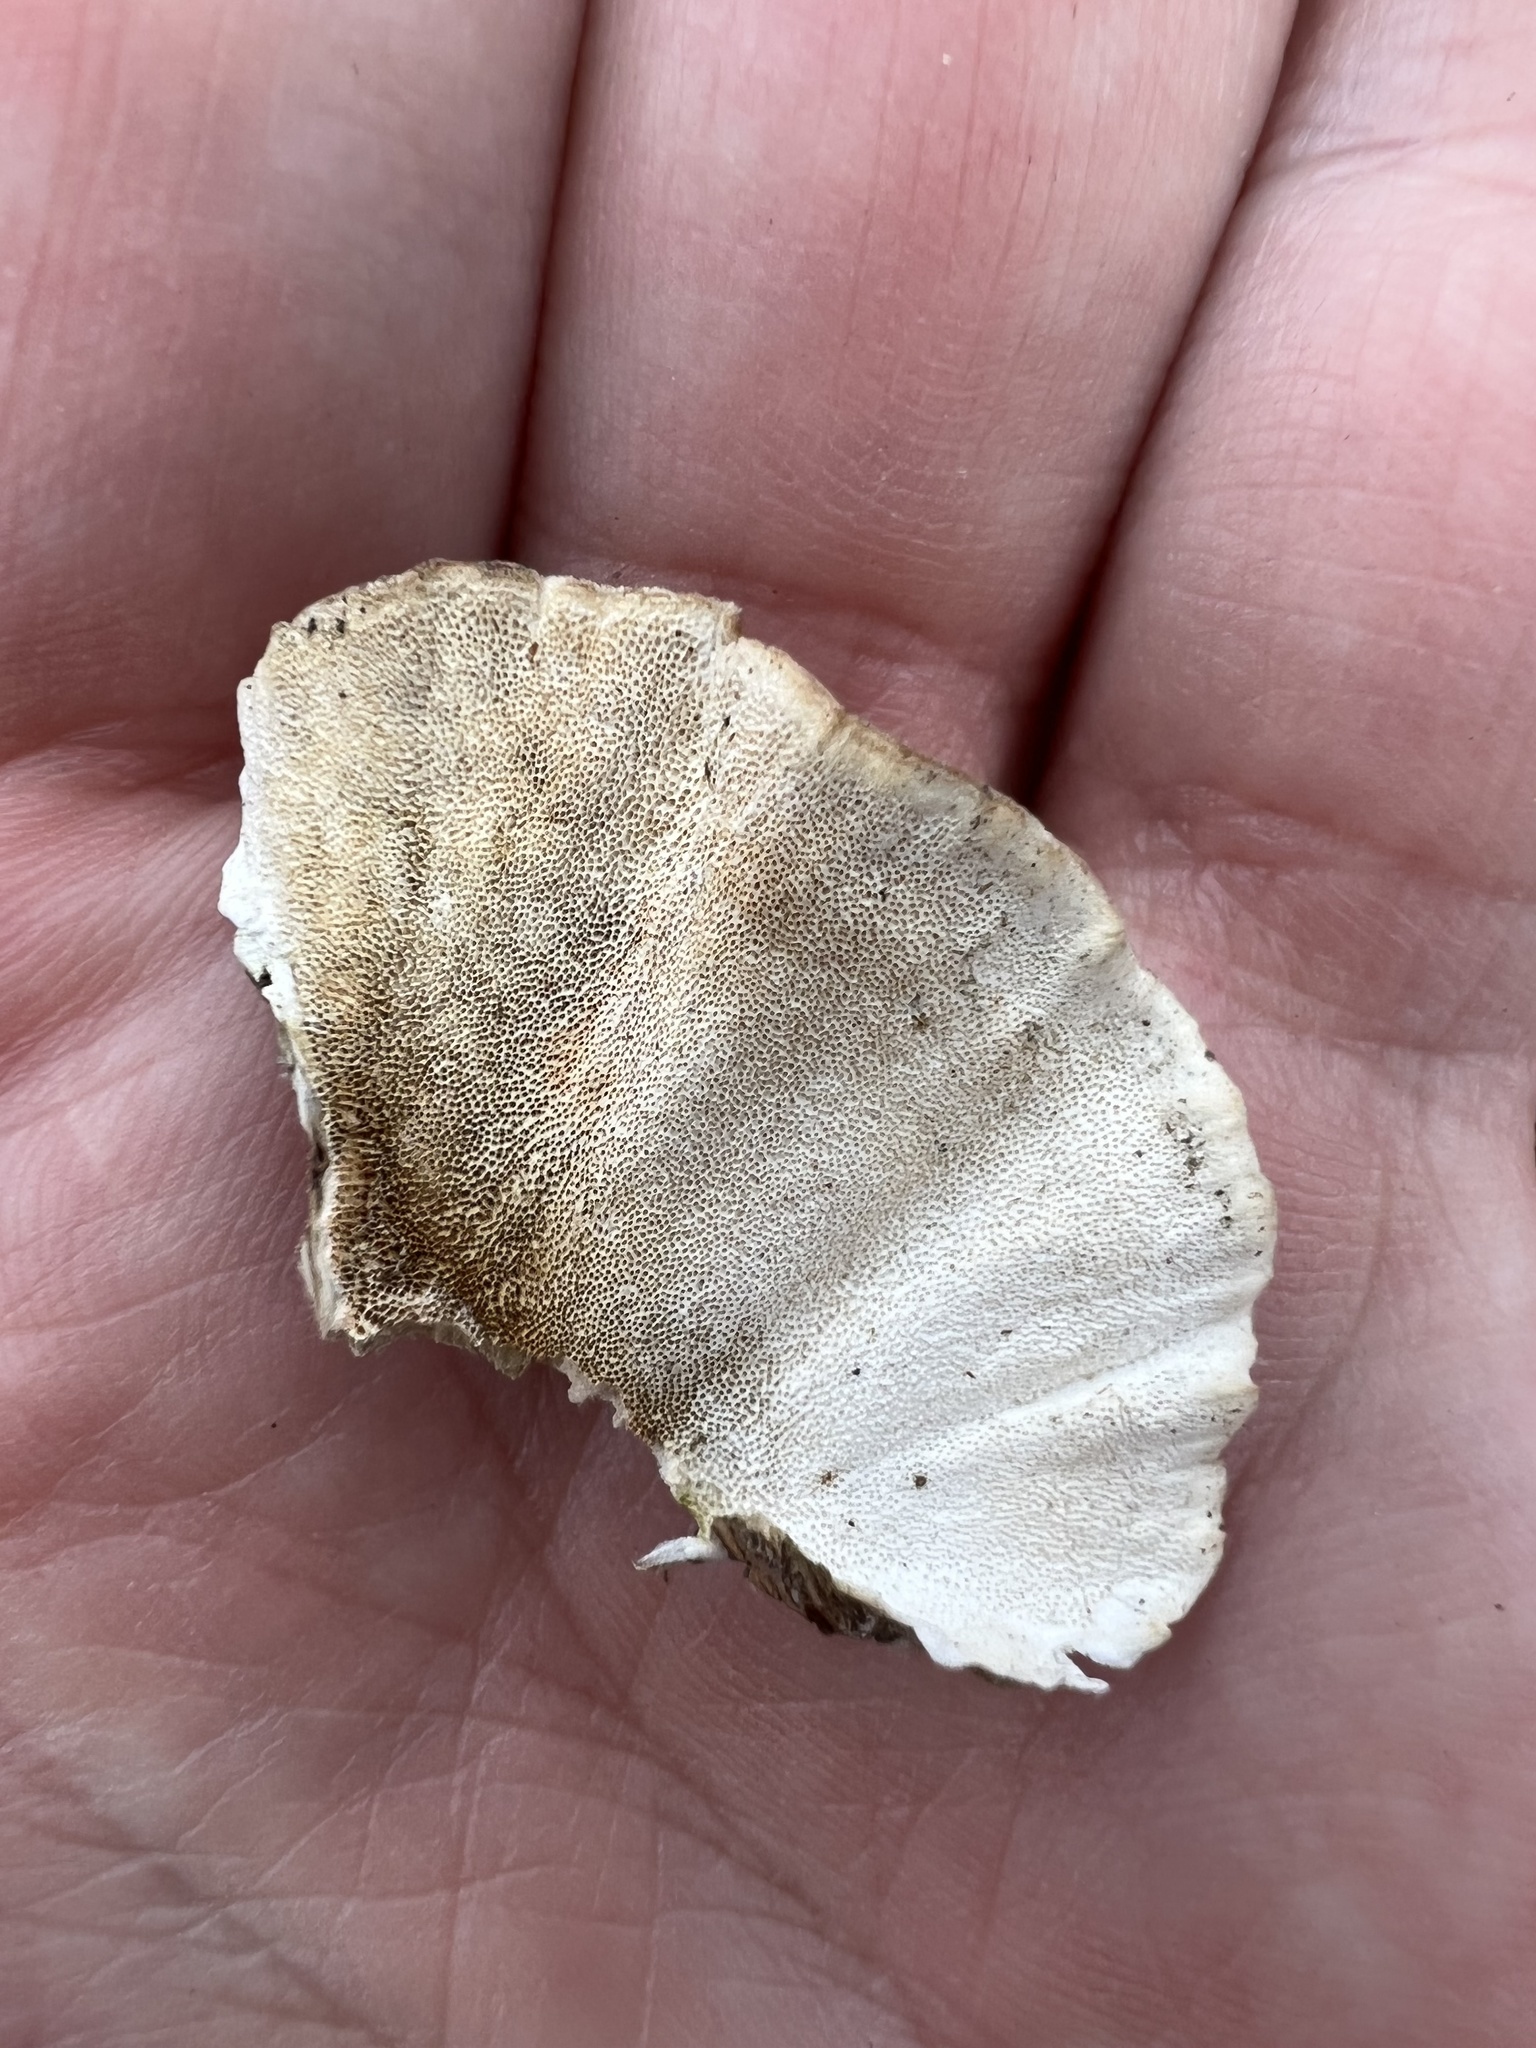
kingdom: Fungi
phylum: Basidiomycota
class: Agaricomycetes
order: Polyporales
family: Polyporaceae
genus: Trametes
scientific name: Trametes versicolor
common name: Turkeytail
